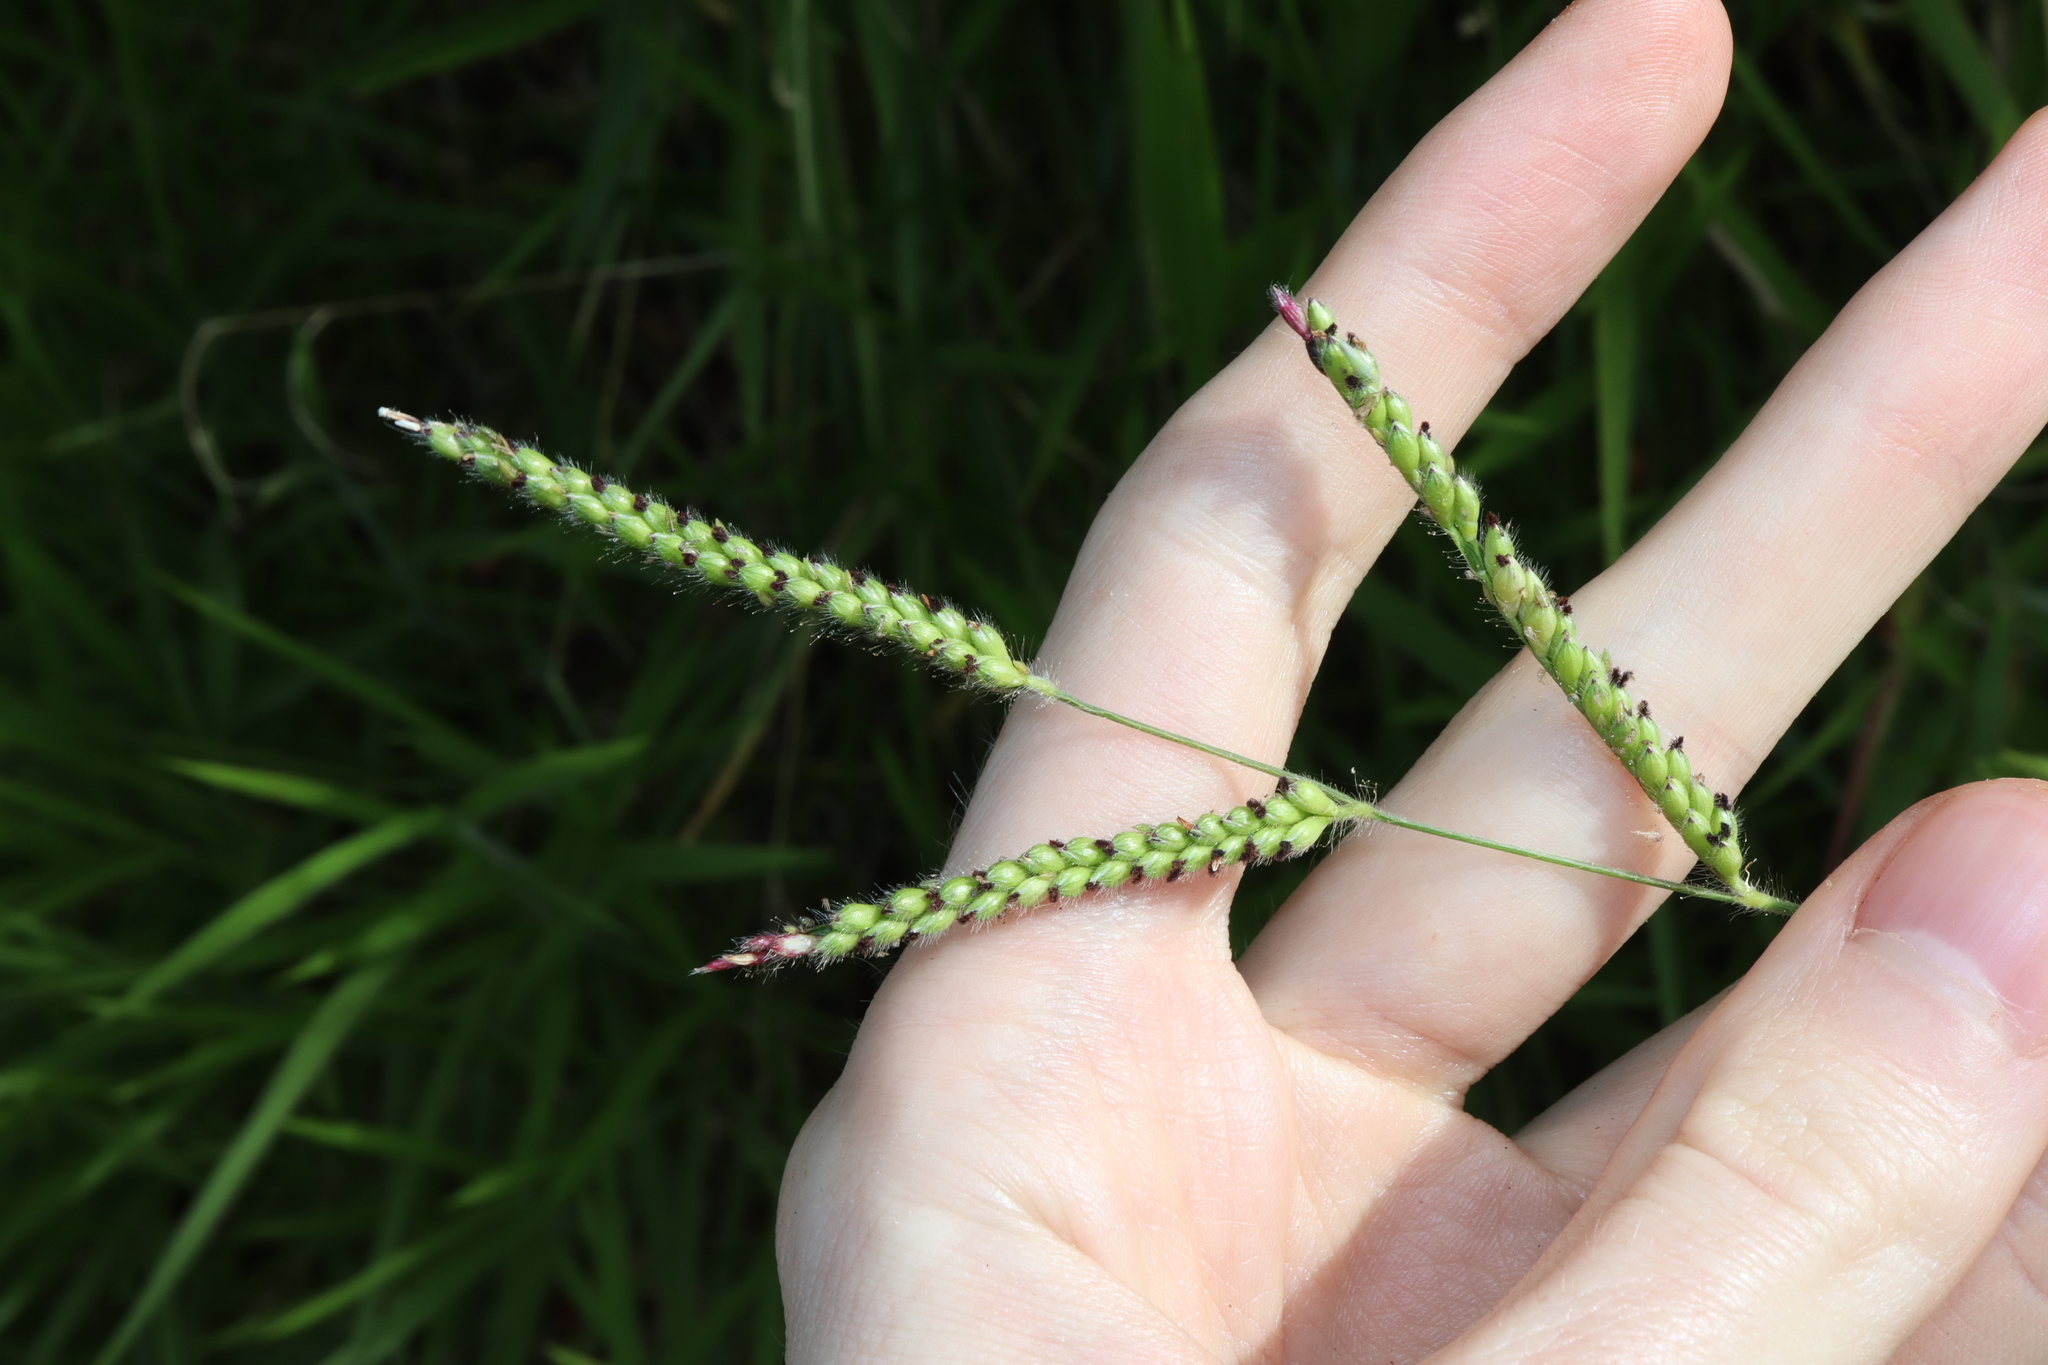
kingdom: Plantae
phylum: Tracheophyta
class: Liliopsida
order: Poales
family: Poaceae
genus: Urochloa
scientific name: Urochloa eminii
